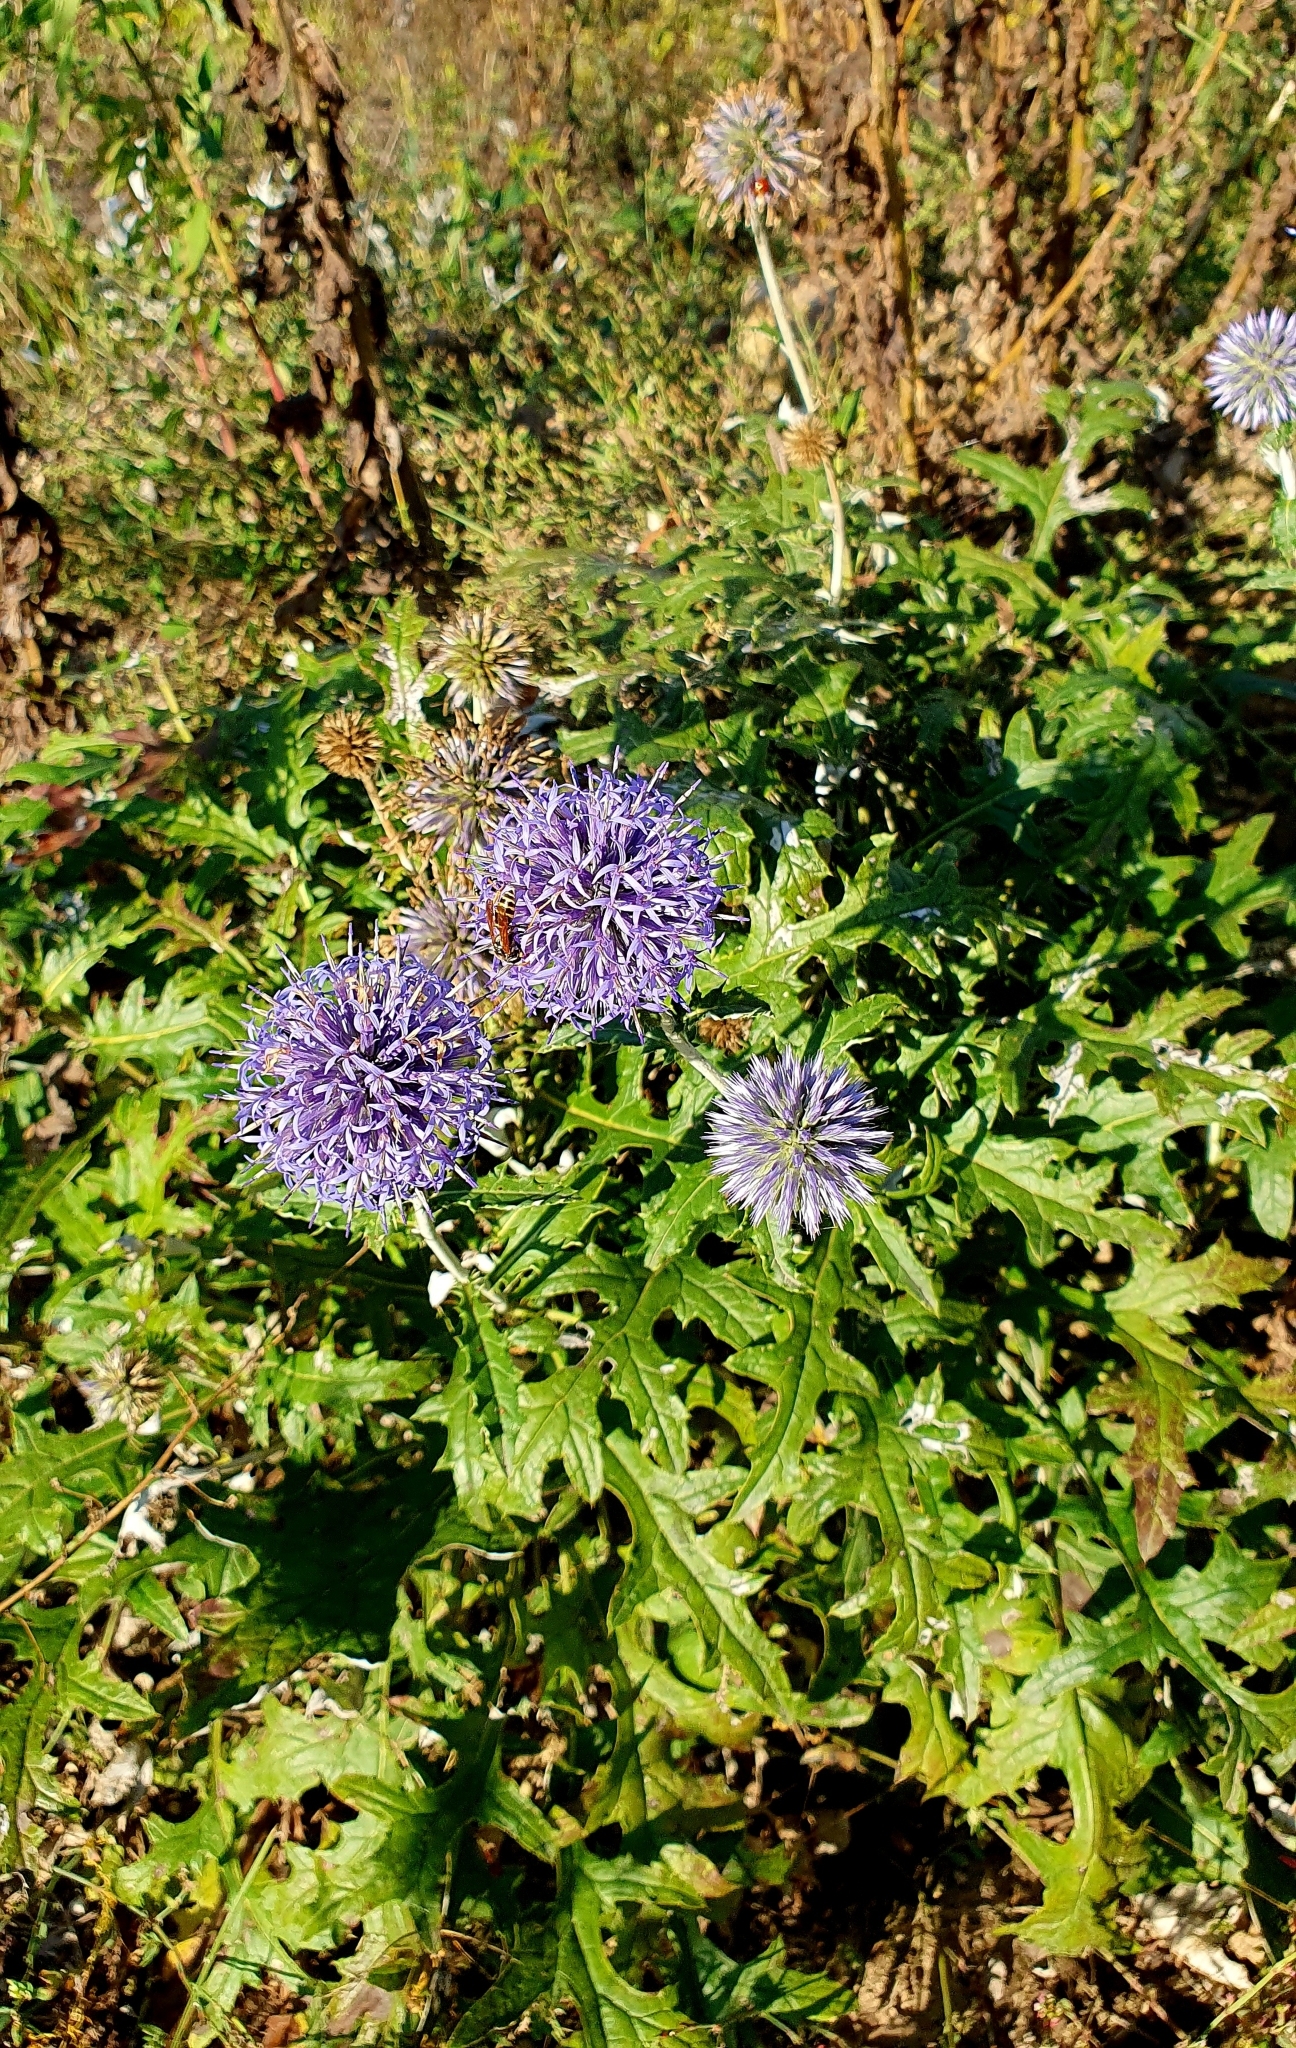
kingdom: Plantae
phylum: Tracheophyta
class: Magnoliopsida
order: Asterales
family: Asteraceae
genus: Echinops
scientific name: Echinops saksonovii
